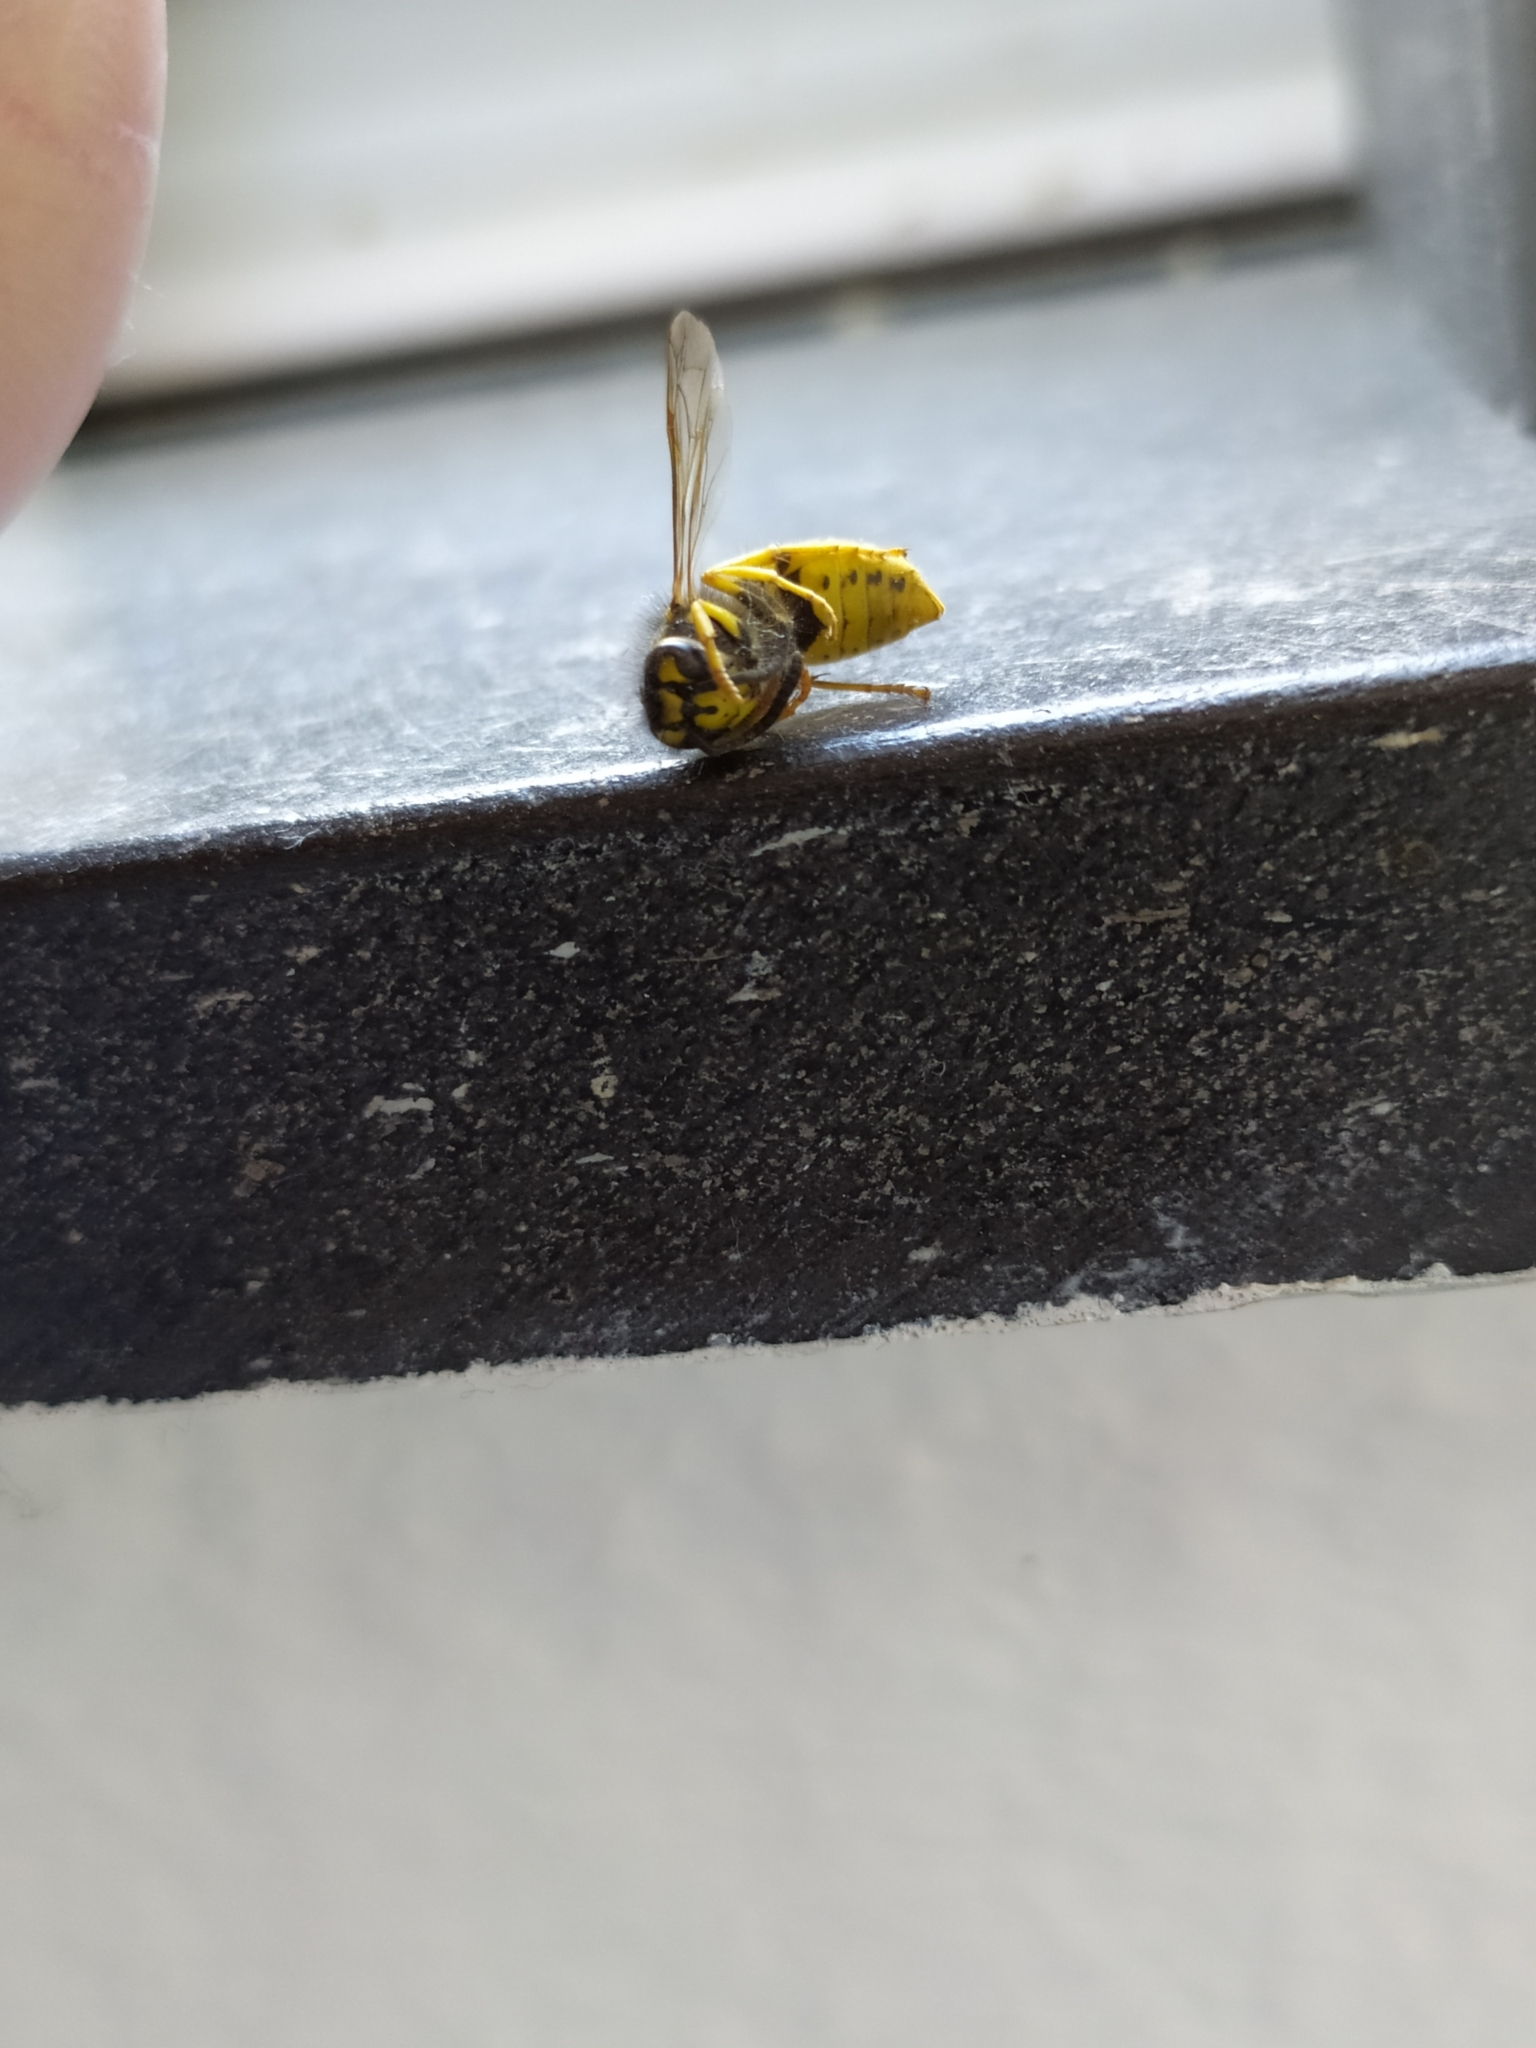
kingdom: Animalia
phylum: Arthropoda
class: Insecta
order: Hymenoptera
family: Vespidae
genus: Vespula
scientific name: Vespula germanica
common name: German wasp
